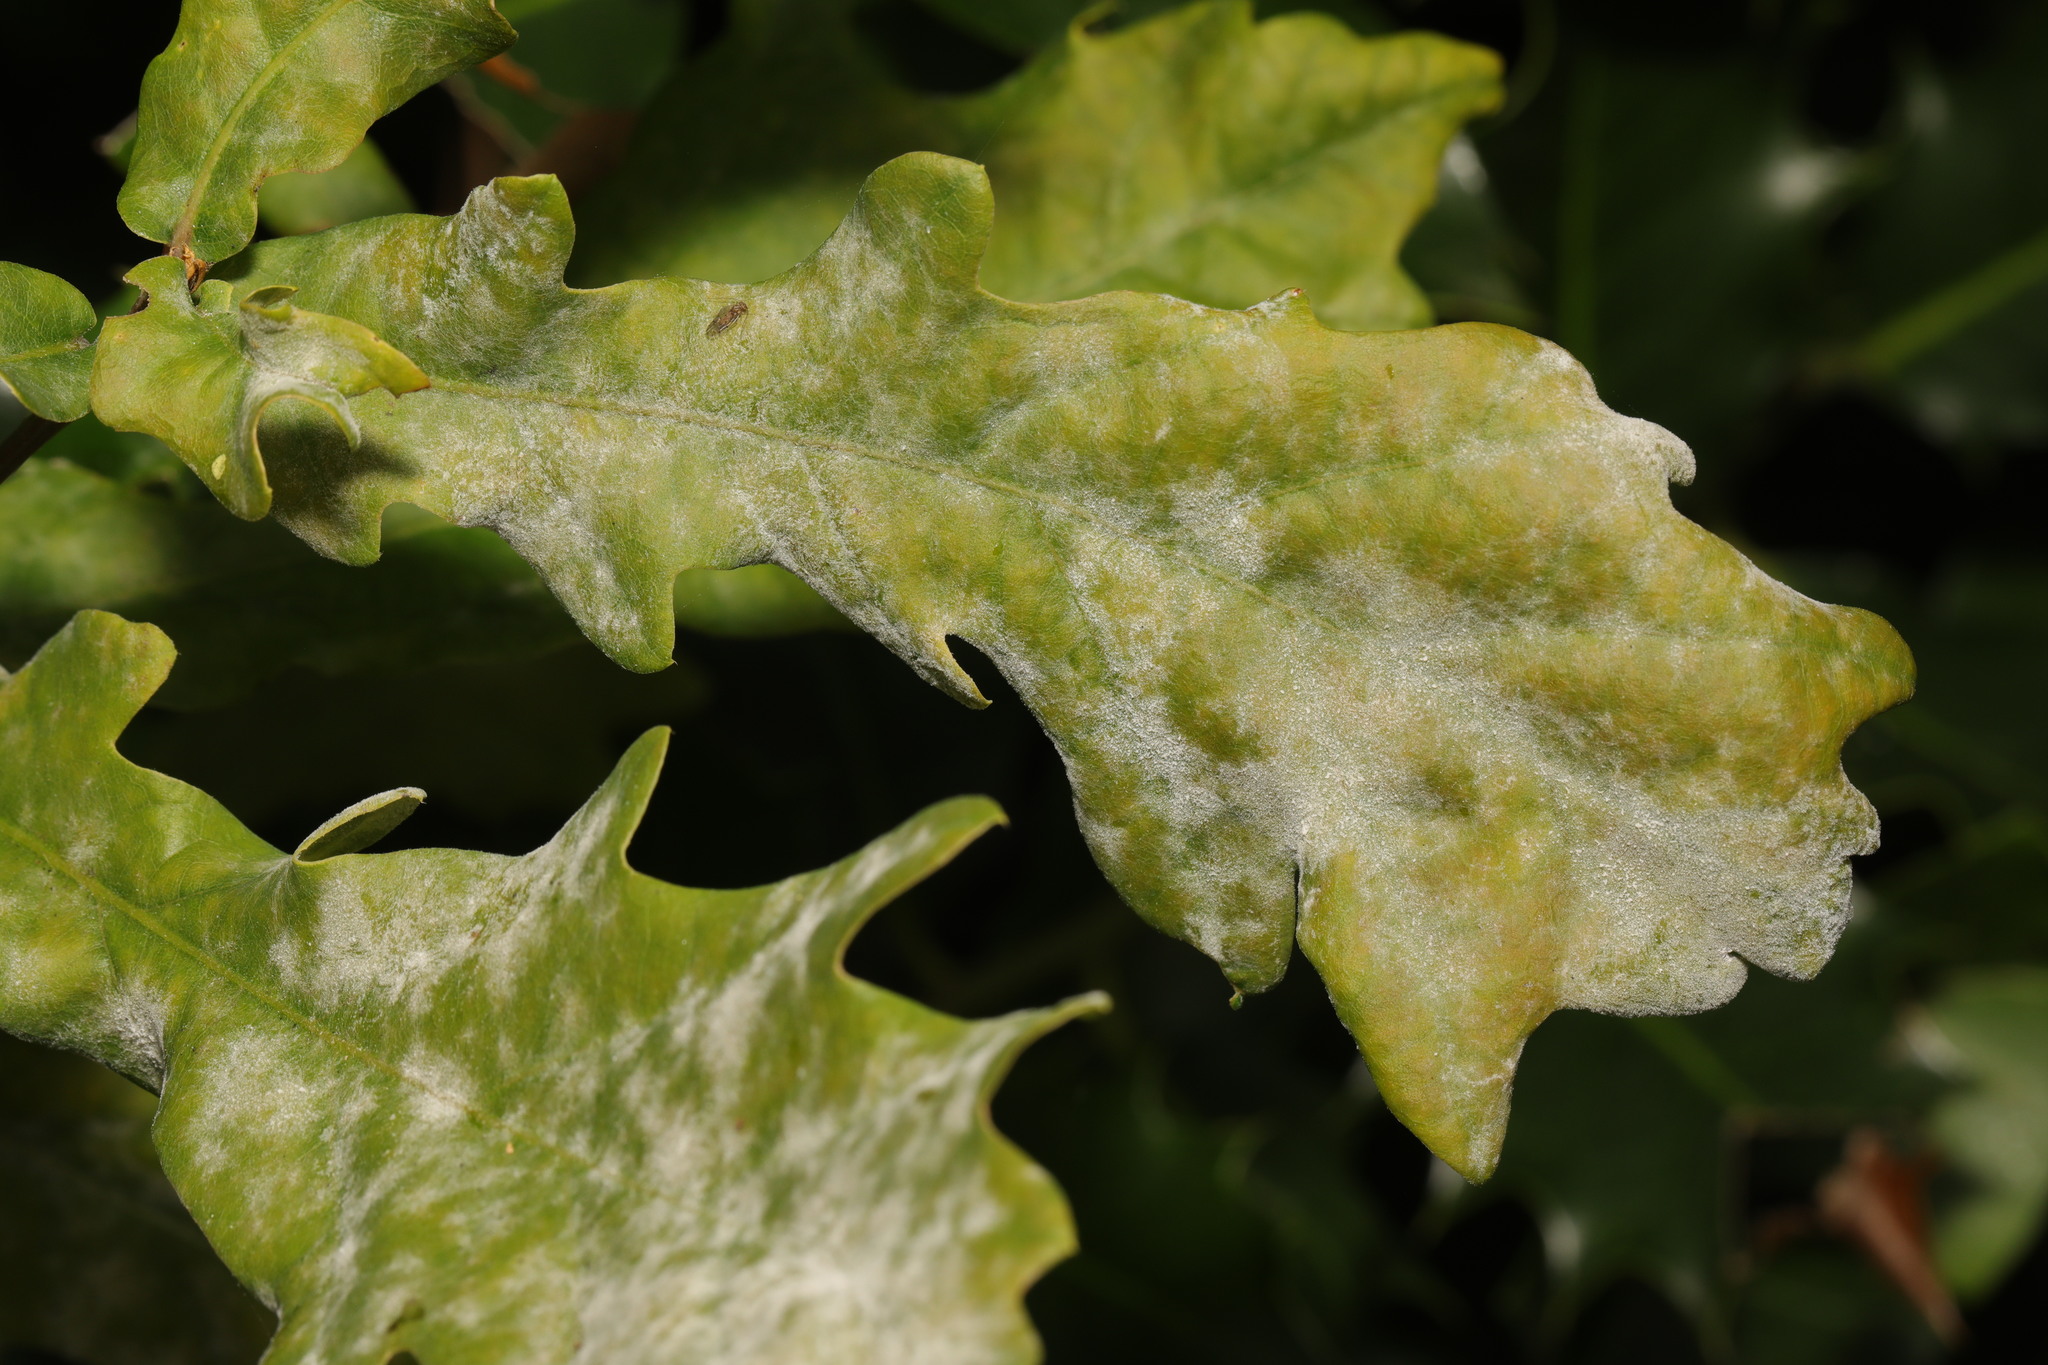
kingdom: Fungi
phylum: Ascomycota
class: Leotiomycetes
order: Helotiales
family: Erysiphaceae
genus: Erysiphe
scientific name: Erysiphe alphitoides
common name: Oak mildew
